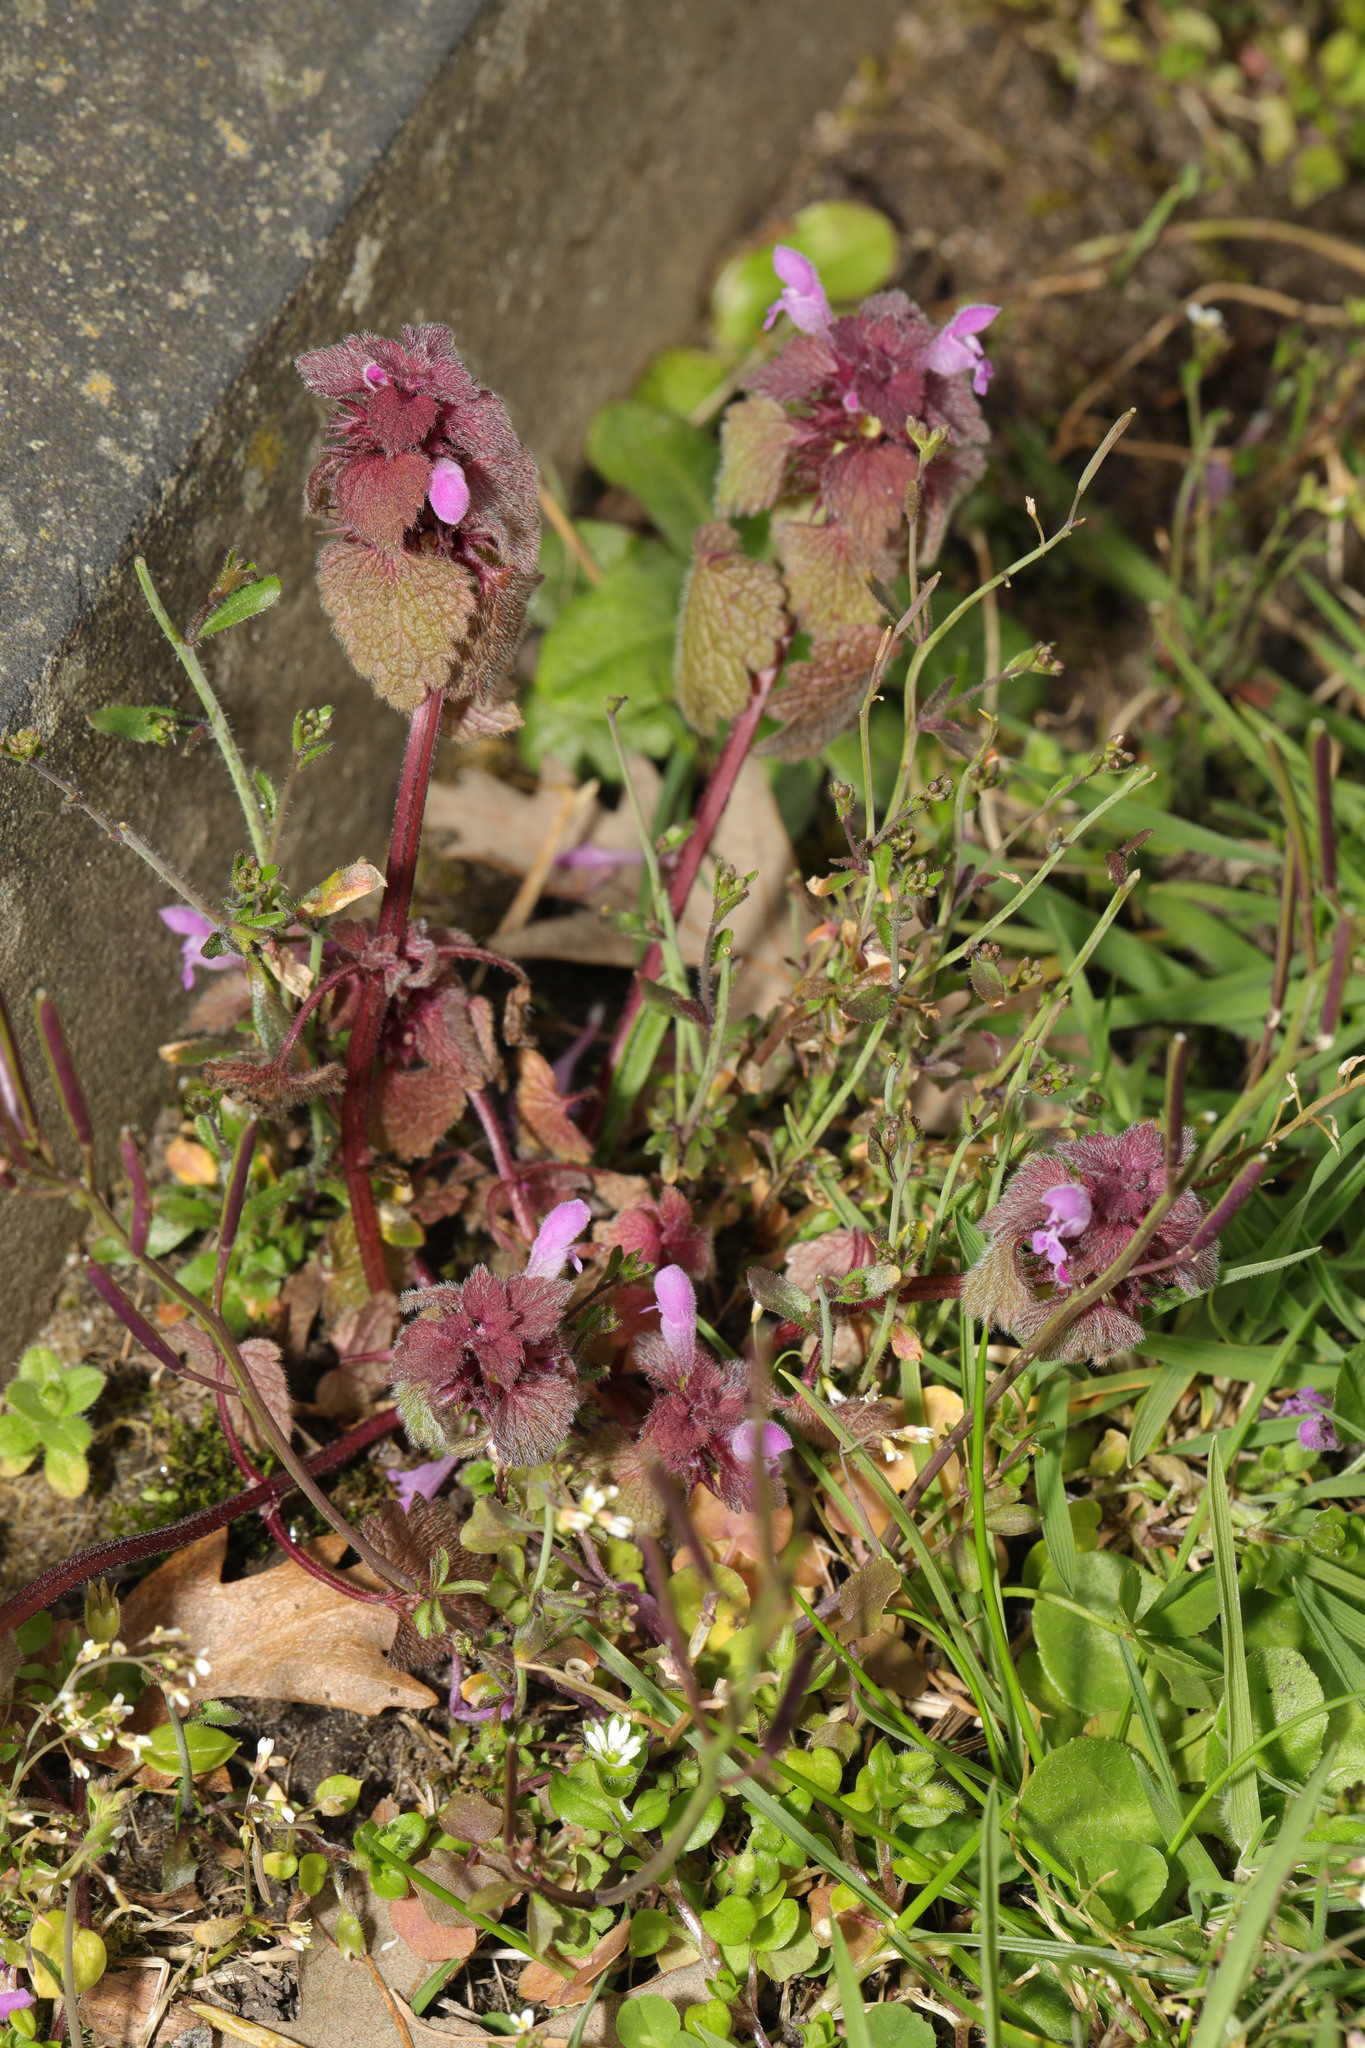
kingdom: Plantae
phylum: Tracheophyta
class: Magnoliopsida
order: Lamiales
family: Lamiaceae
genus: Lamium
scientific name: Lamium purpureum
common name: Red dead-nettle
